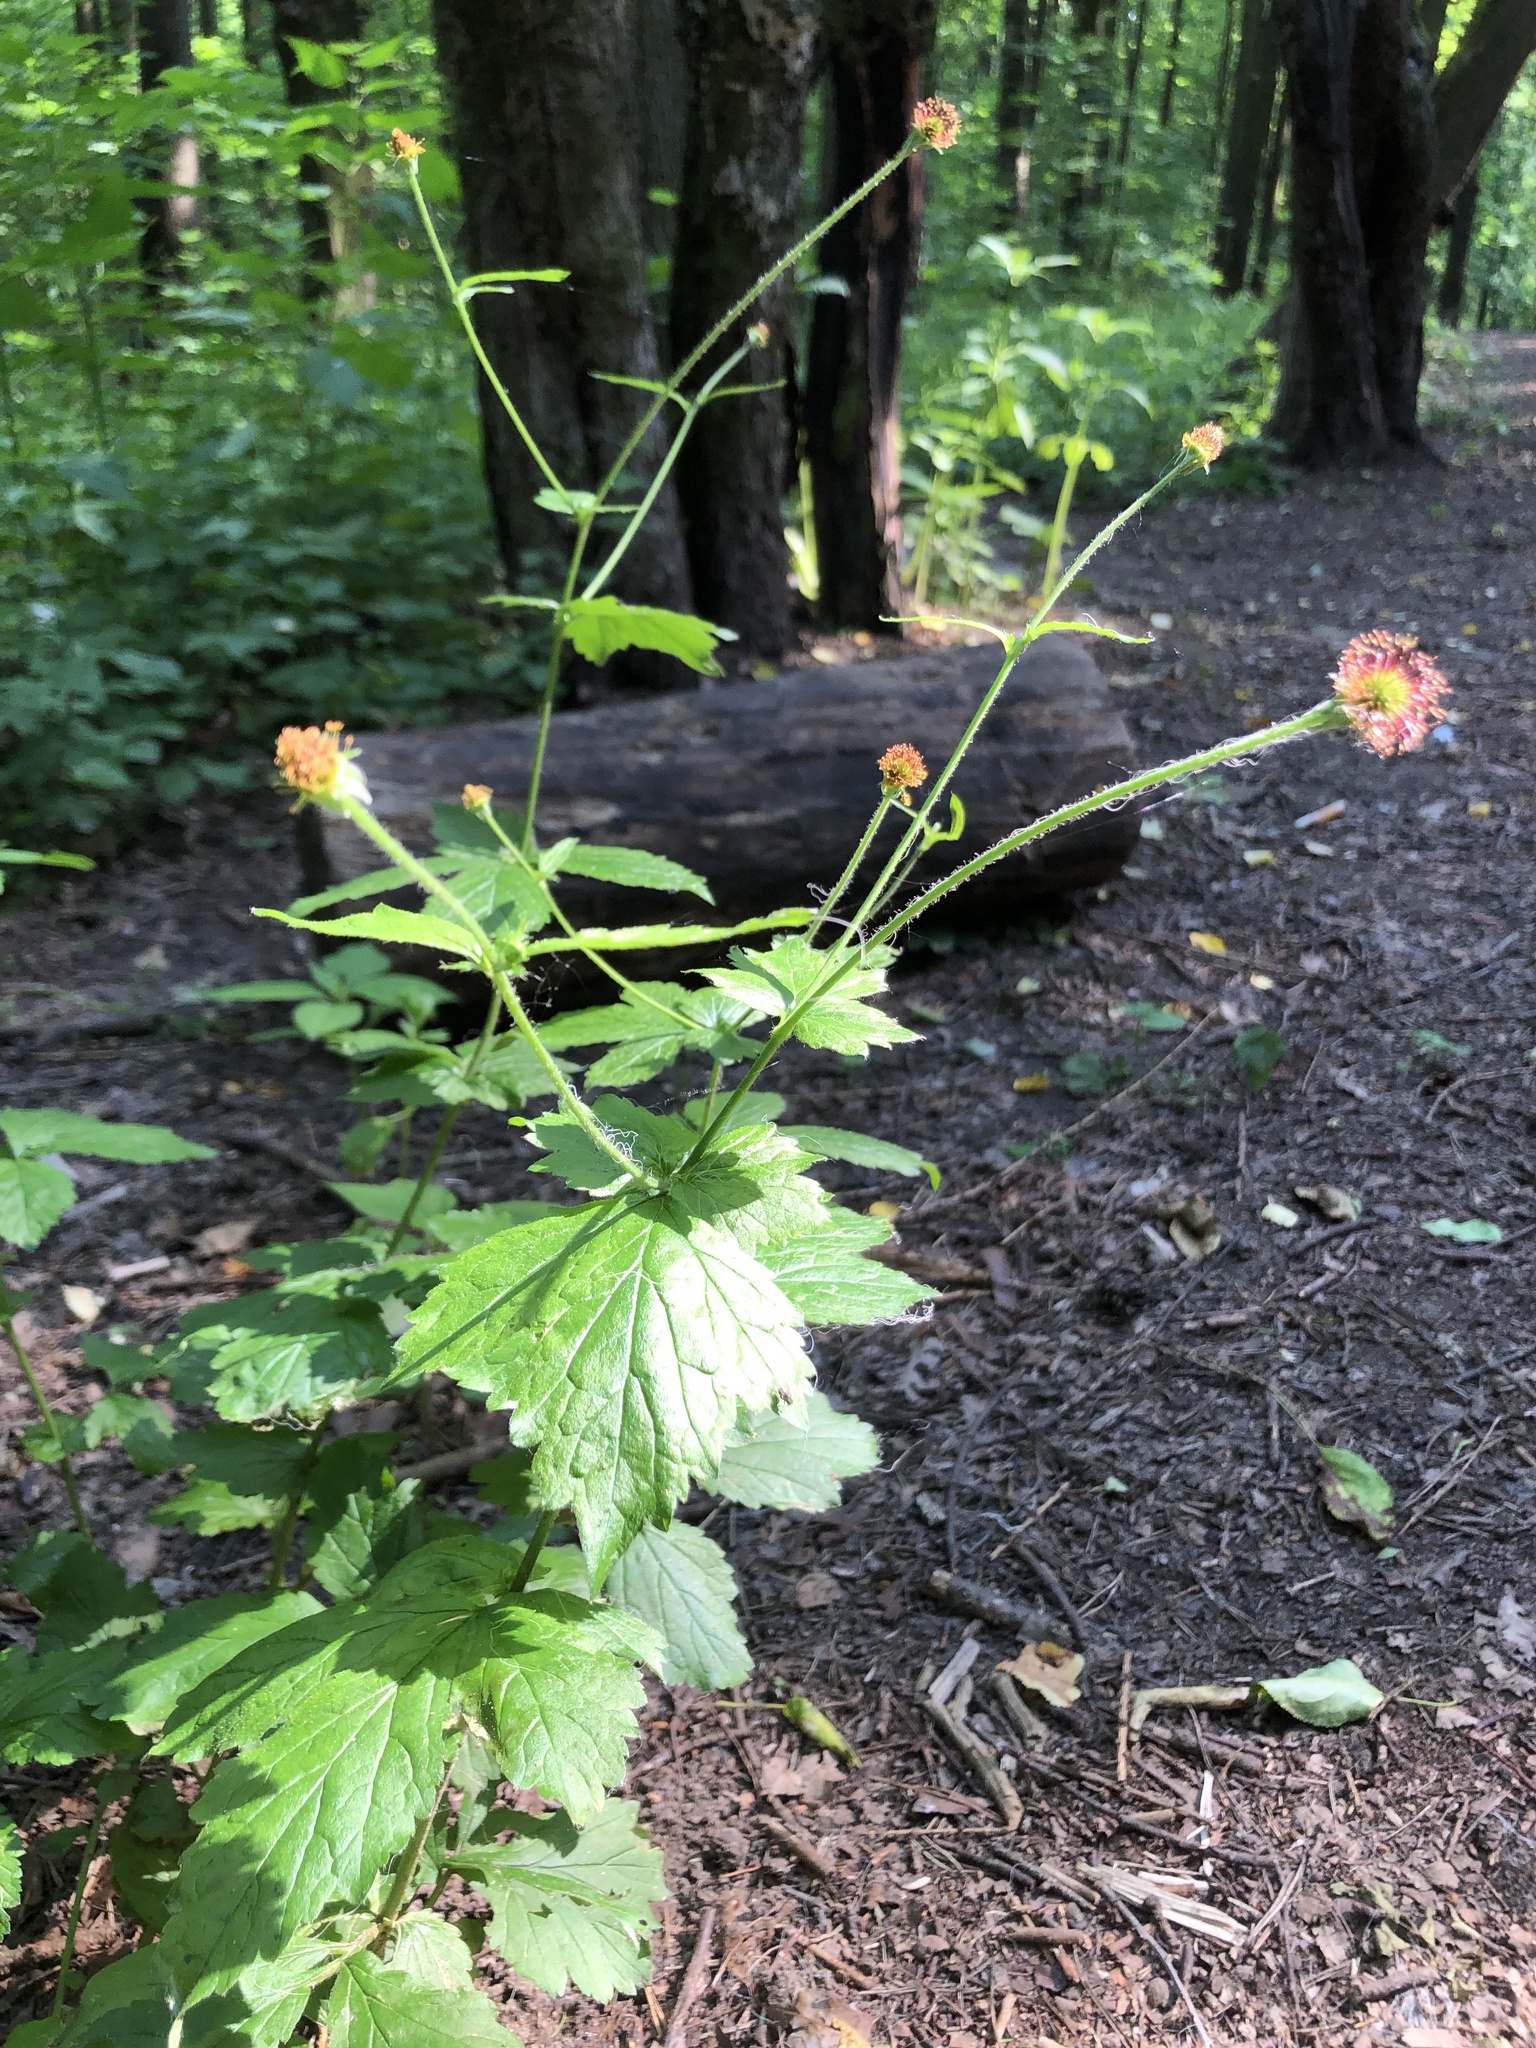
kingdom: Plantae
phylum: Tracheophyta
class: Magnoliopsida
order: Rosales
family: Rosaceae
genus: Geum
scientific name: Geum urbanum
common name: Wood avens
